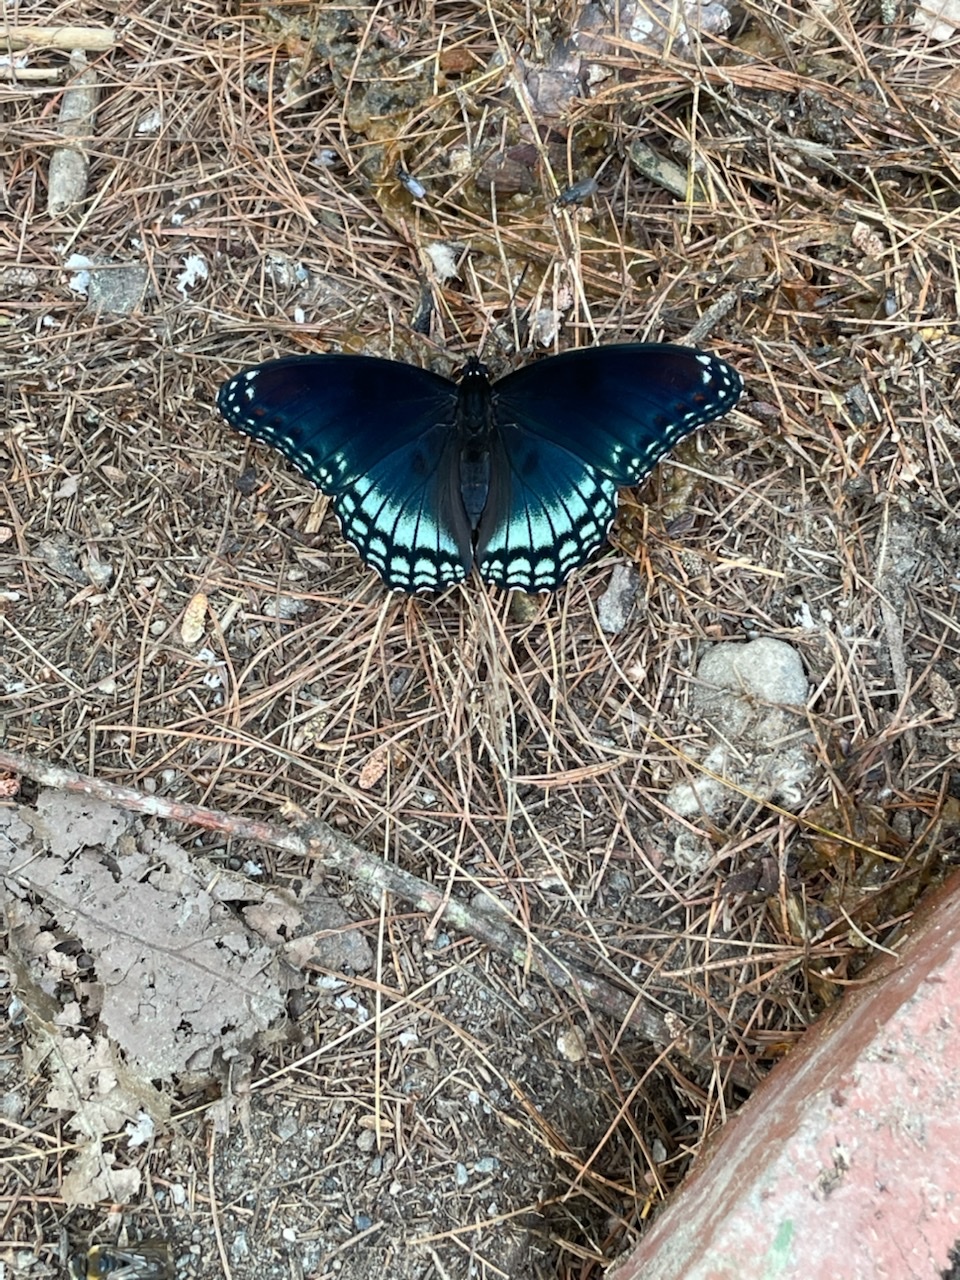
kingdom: Animalia
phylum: Arthropoda
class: Insecta
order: Lepidoptera
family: Nymphalidae
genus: Limenitis
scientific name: Limenitis astyanax
